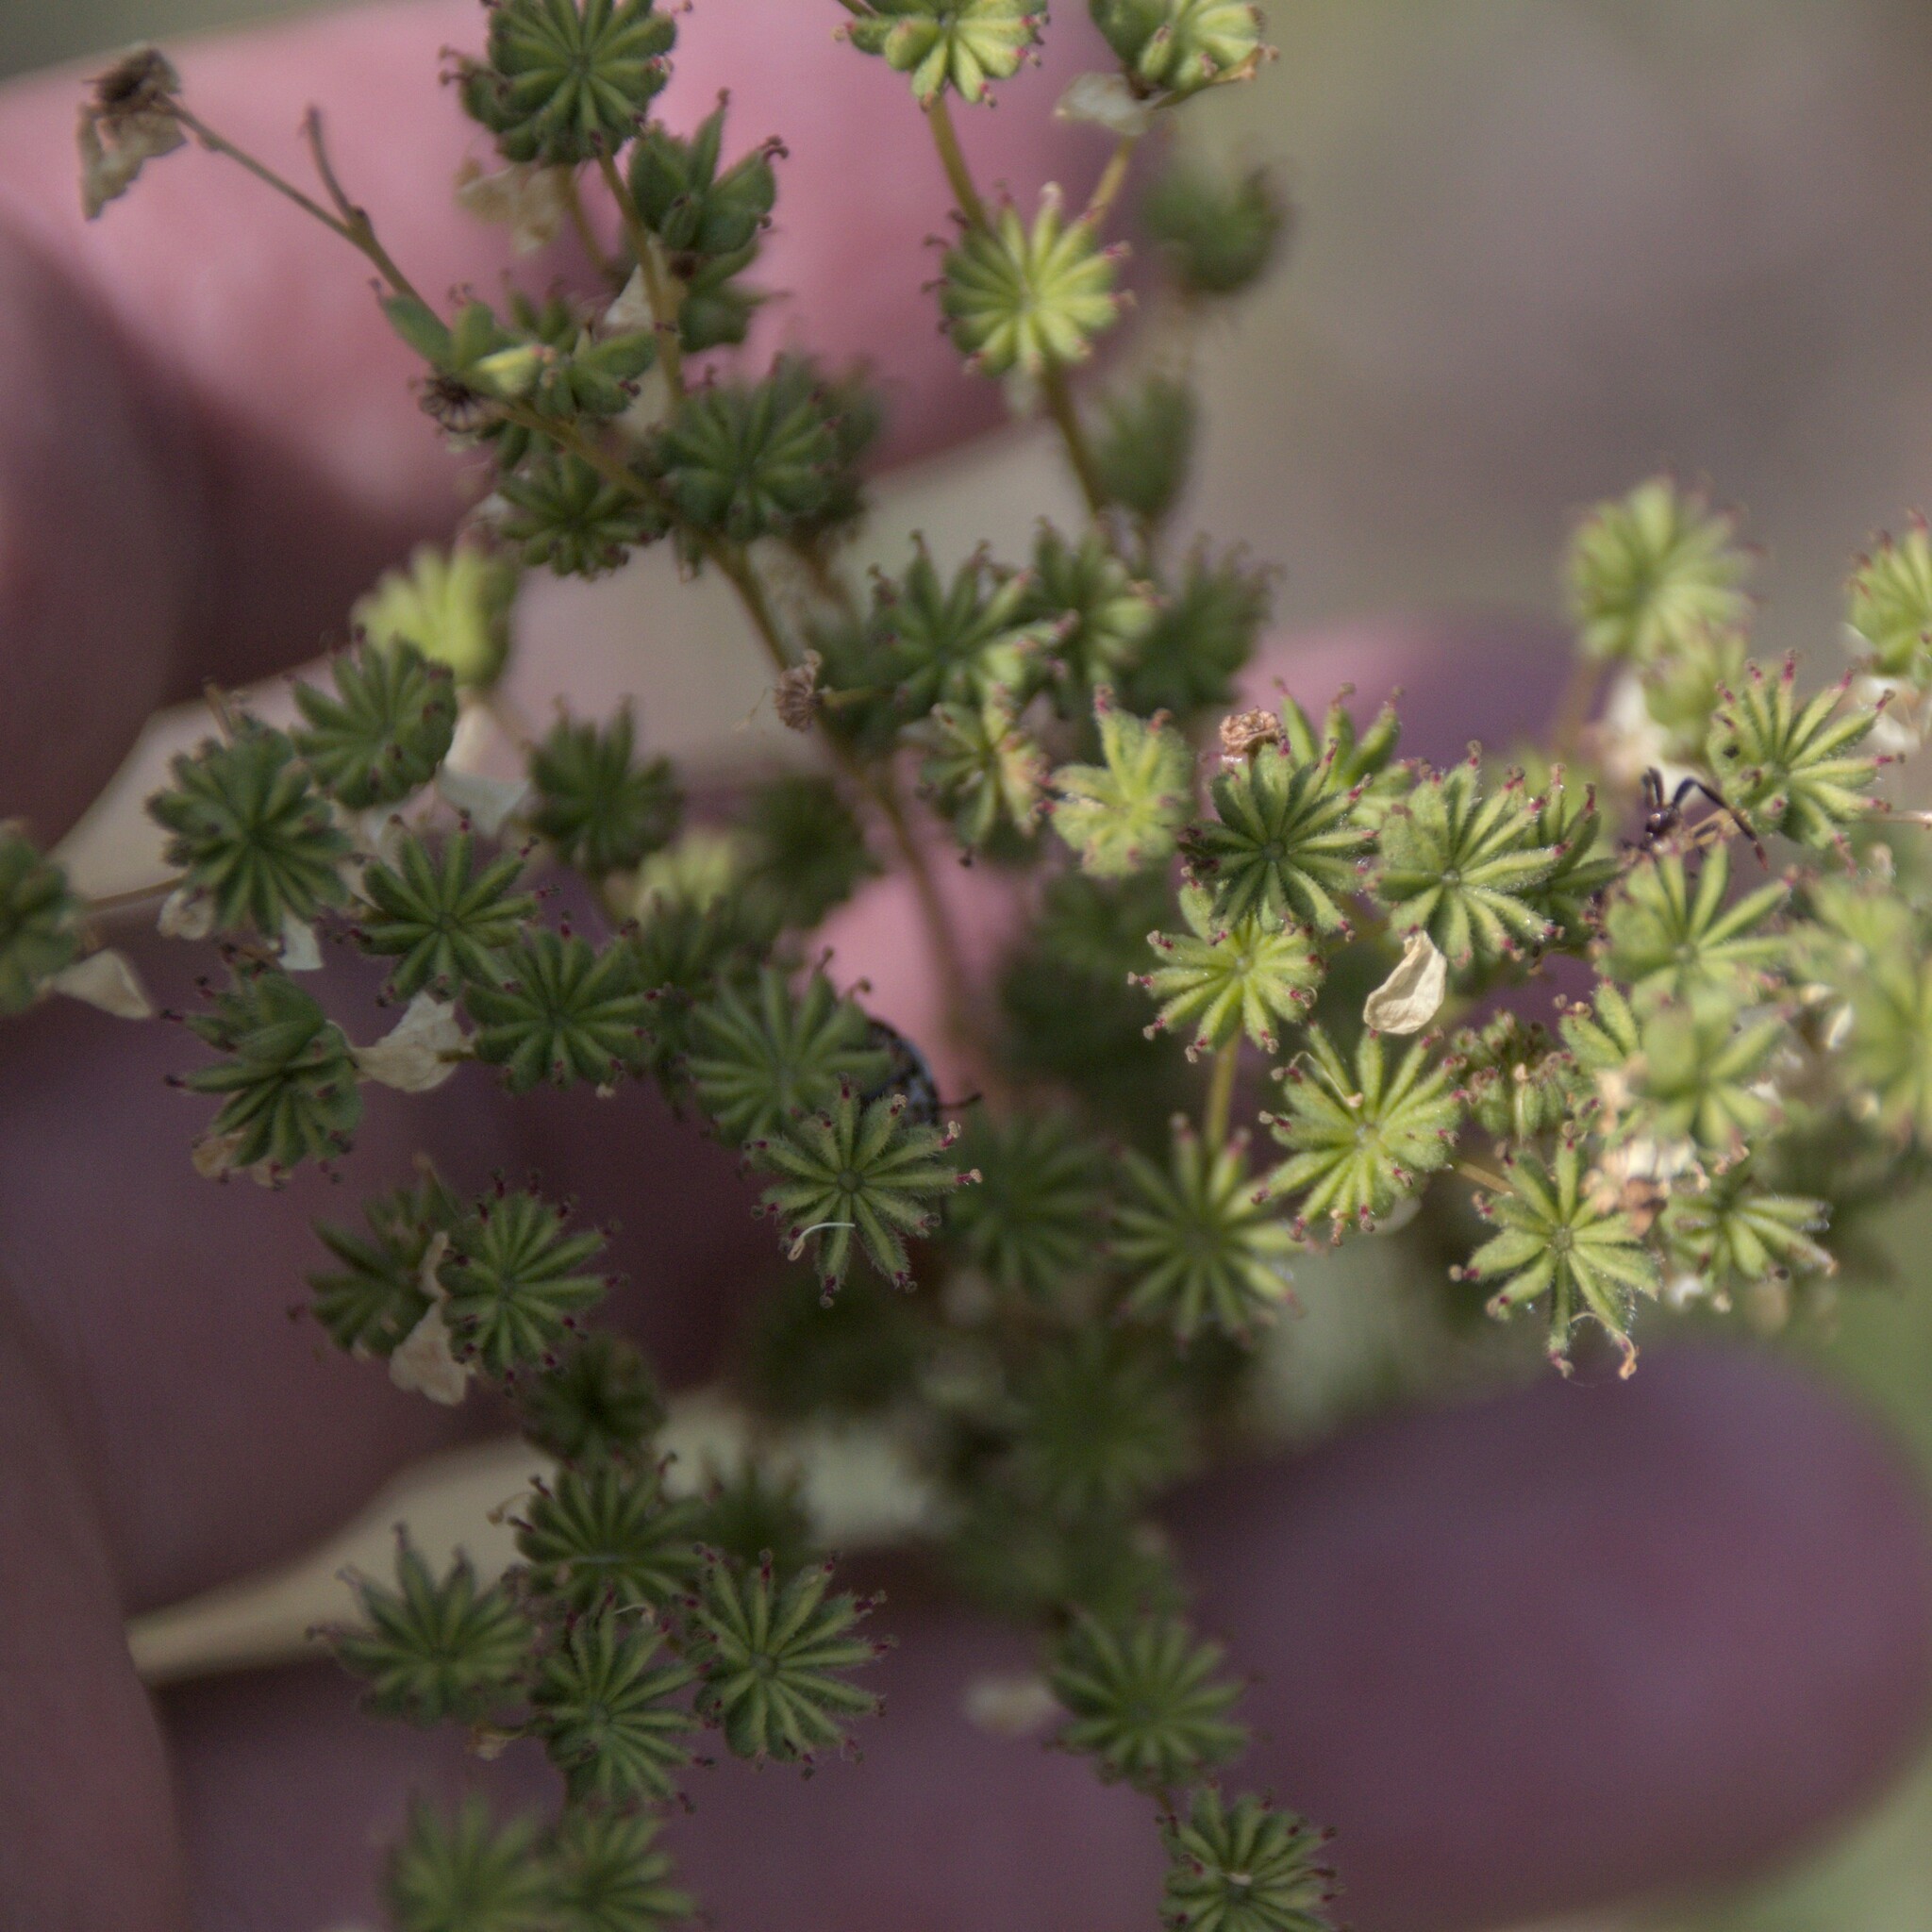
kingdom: Plantae
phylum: Tracheophyta
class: Magnoliopsida
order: Rosales
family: Rosaceae
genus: Filipendula
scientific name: Filipendula vulgaris
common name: Dropwort
